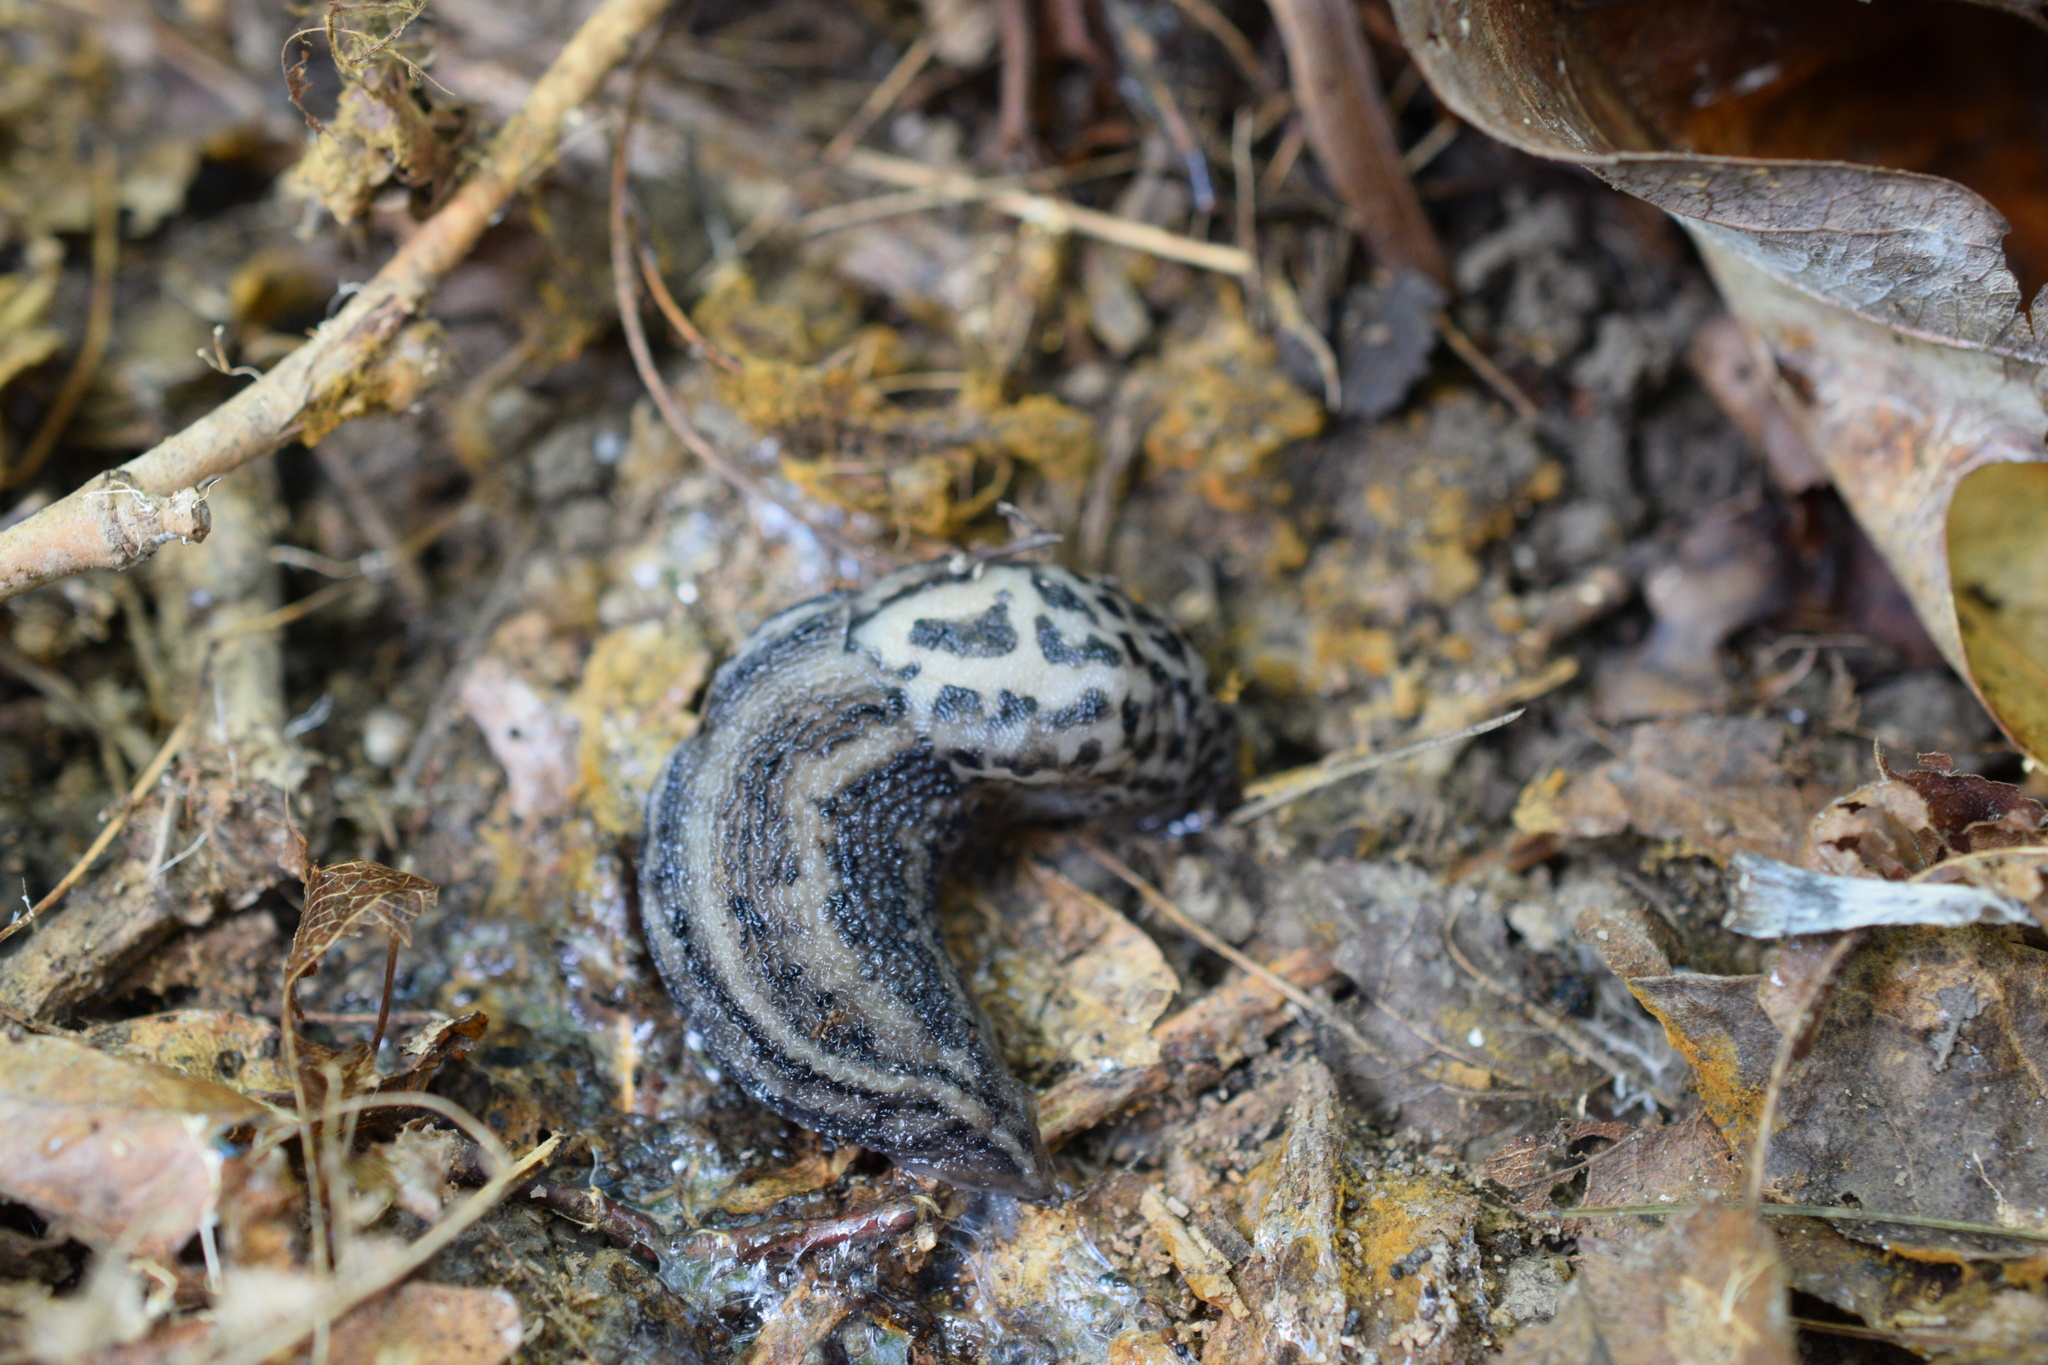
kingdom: Animalia
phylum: Mollusca
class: Gastropoda
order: Stylommatophora
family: Limacidae
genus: Limax
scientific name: Limax maximus
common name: Great grey slug
